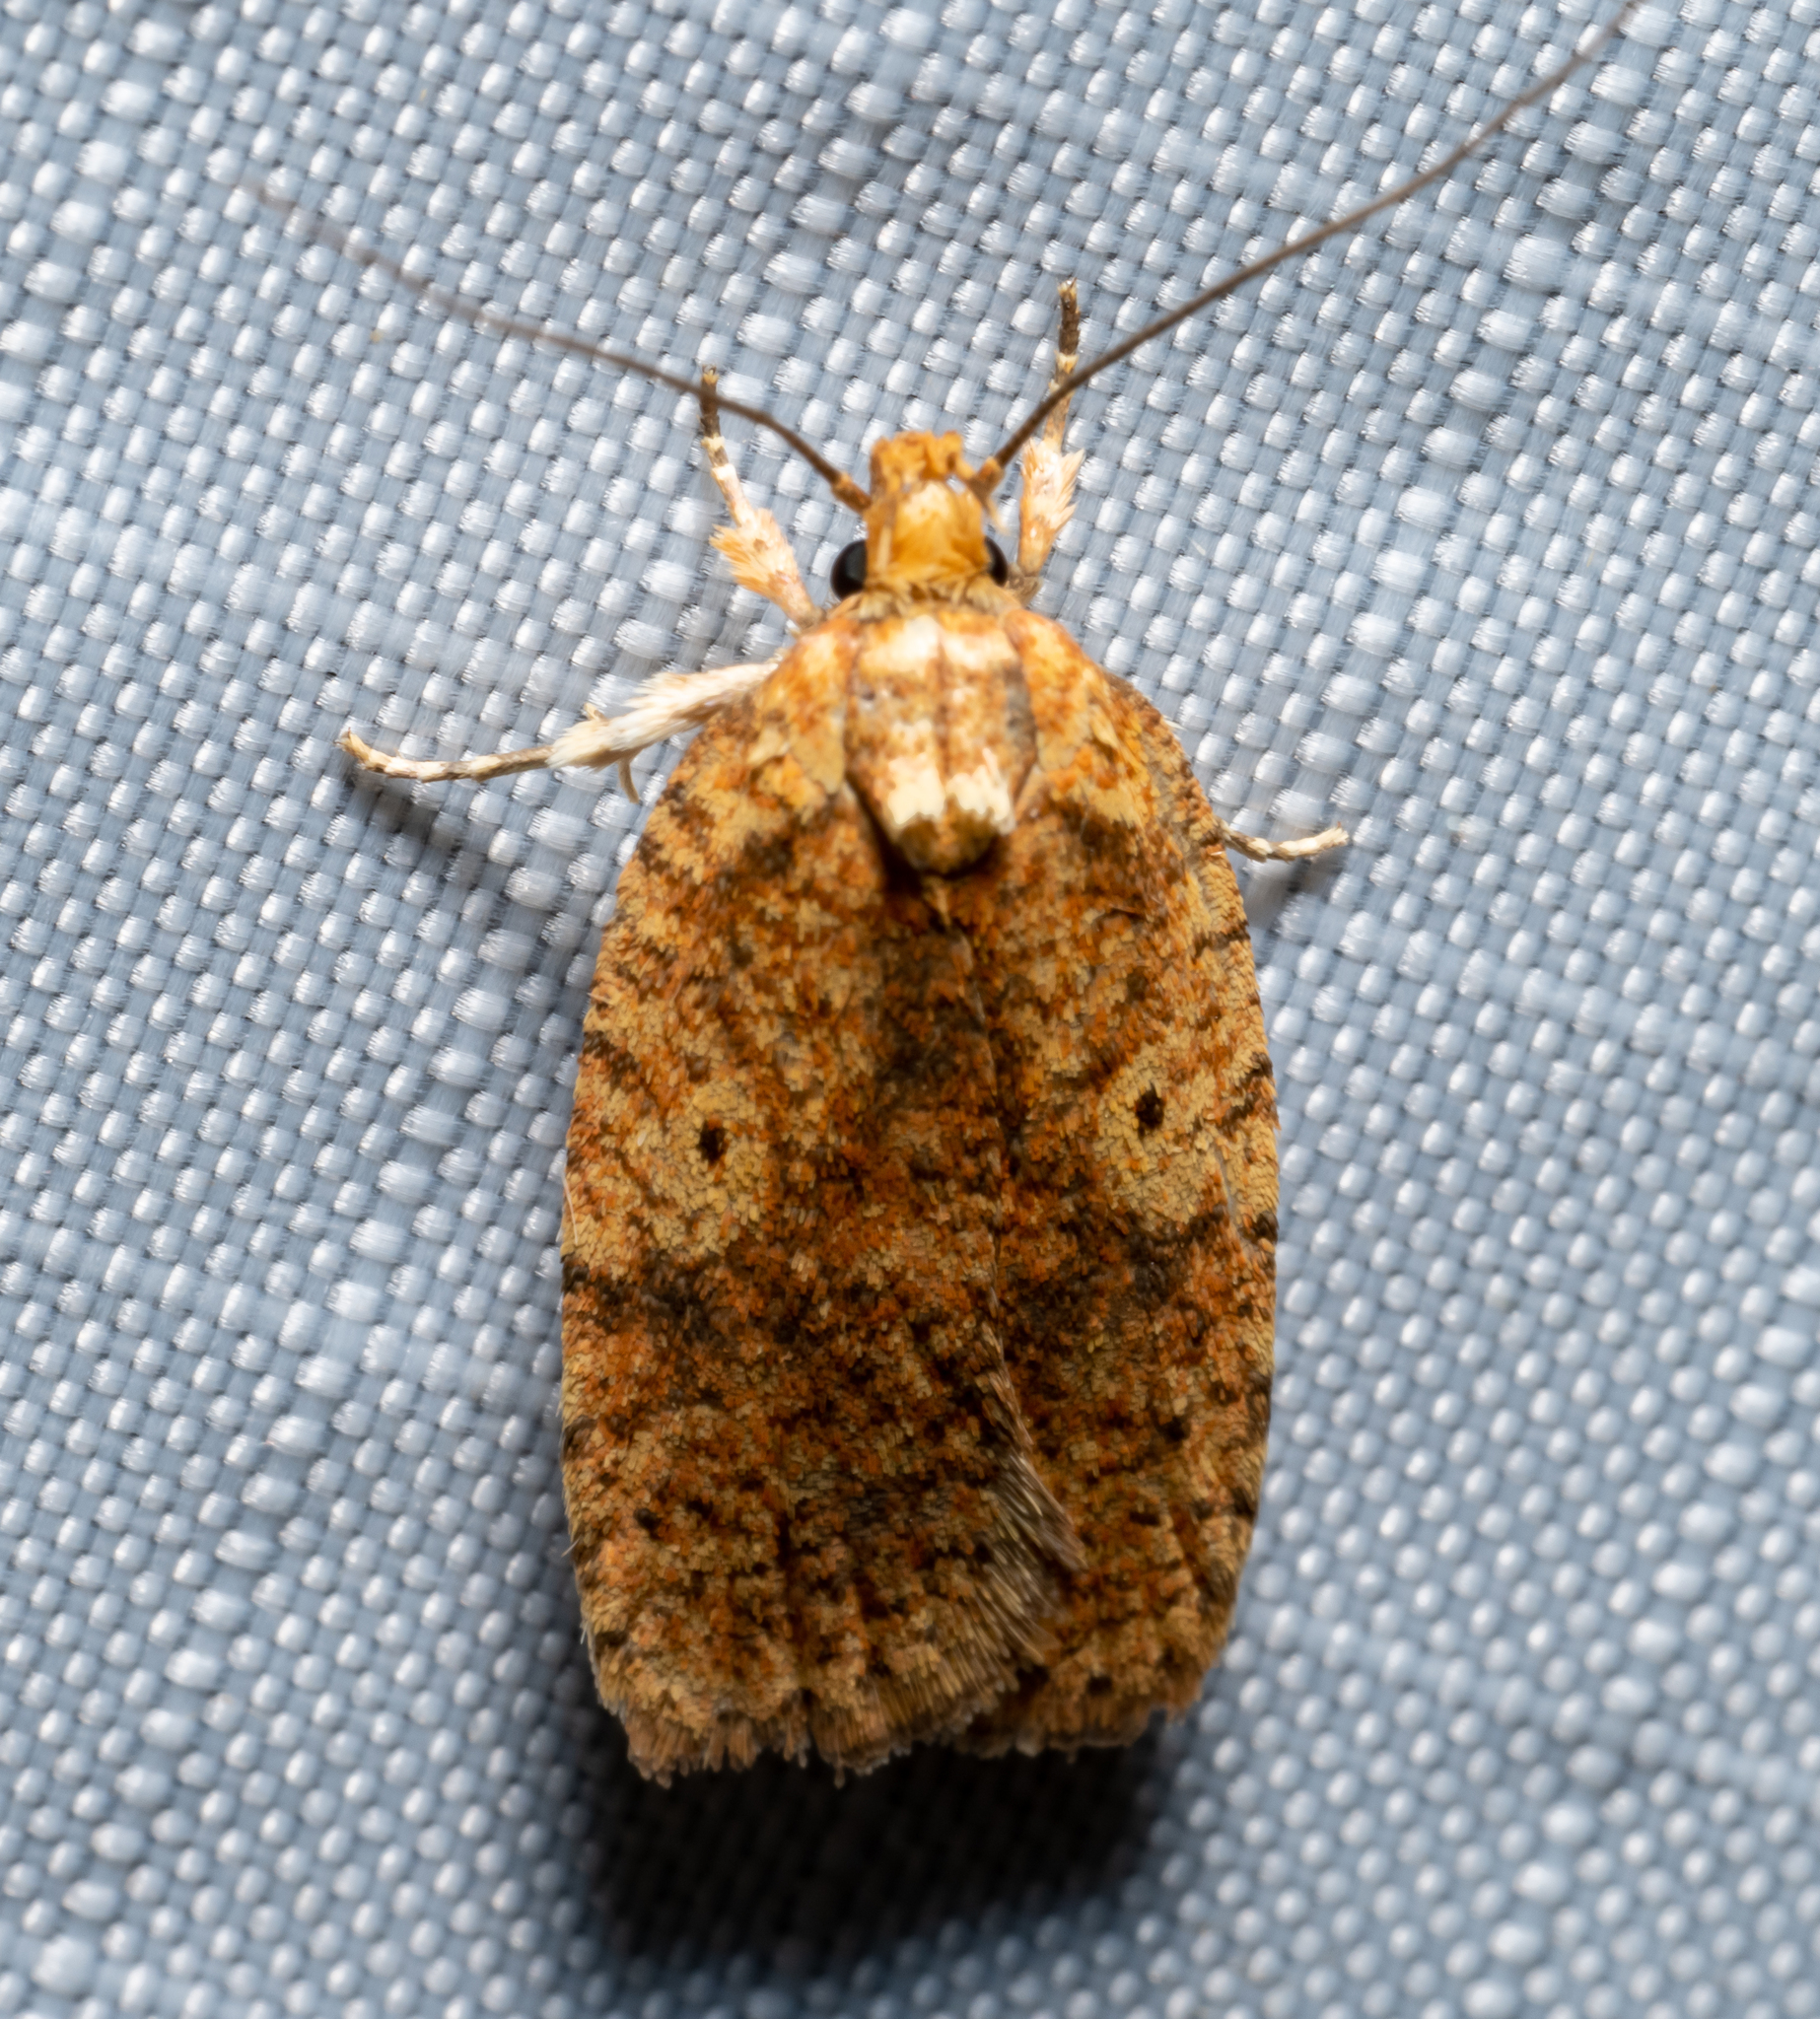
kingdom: Animalia
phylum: Arthropoda
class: Insecta
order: Lepidoptera
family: Depressariidae
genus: Agonopterix
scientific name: Agonopterix robiniella
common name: Four-dotted agonopterix moth
